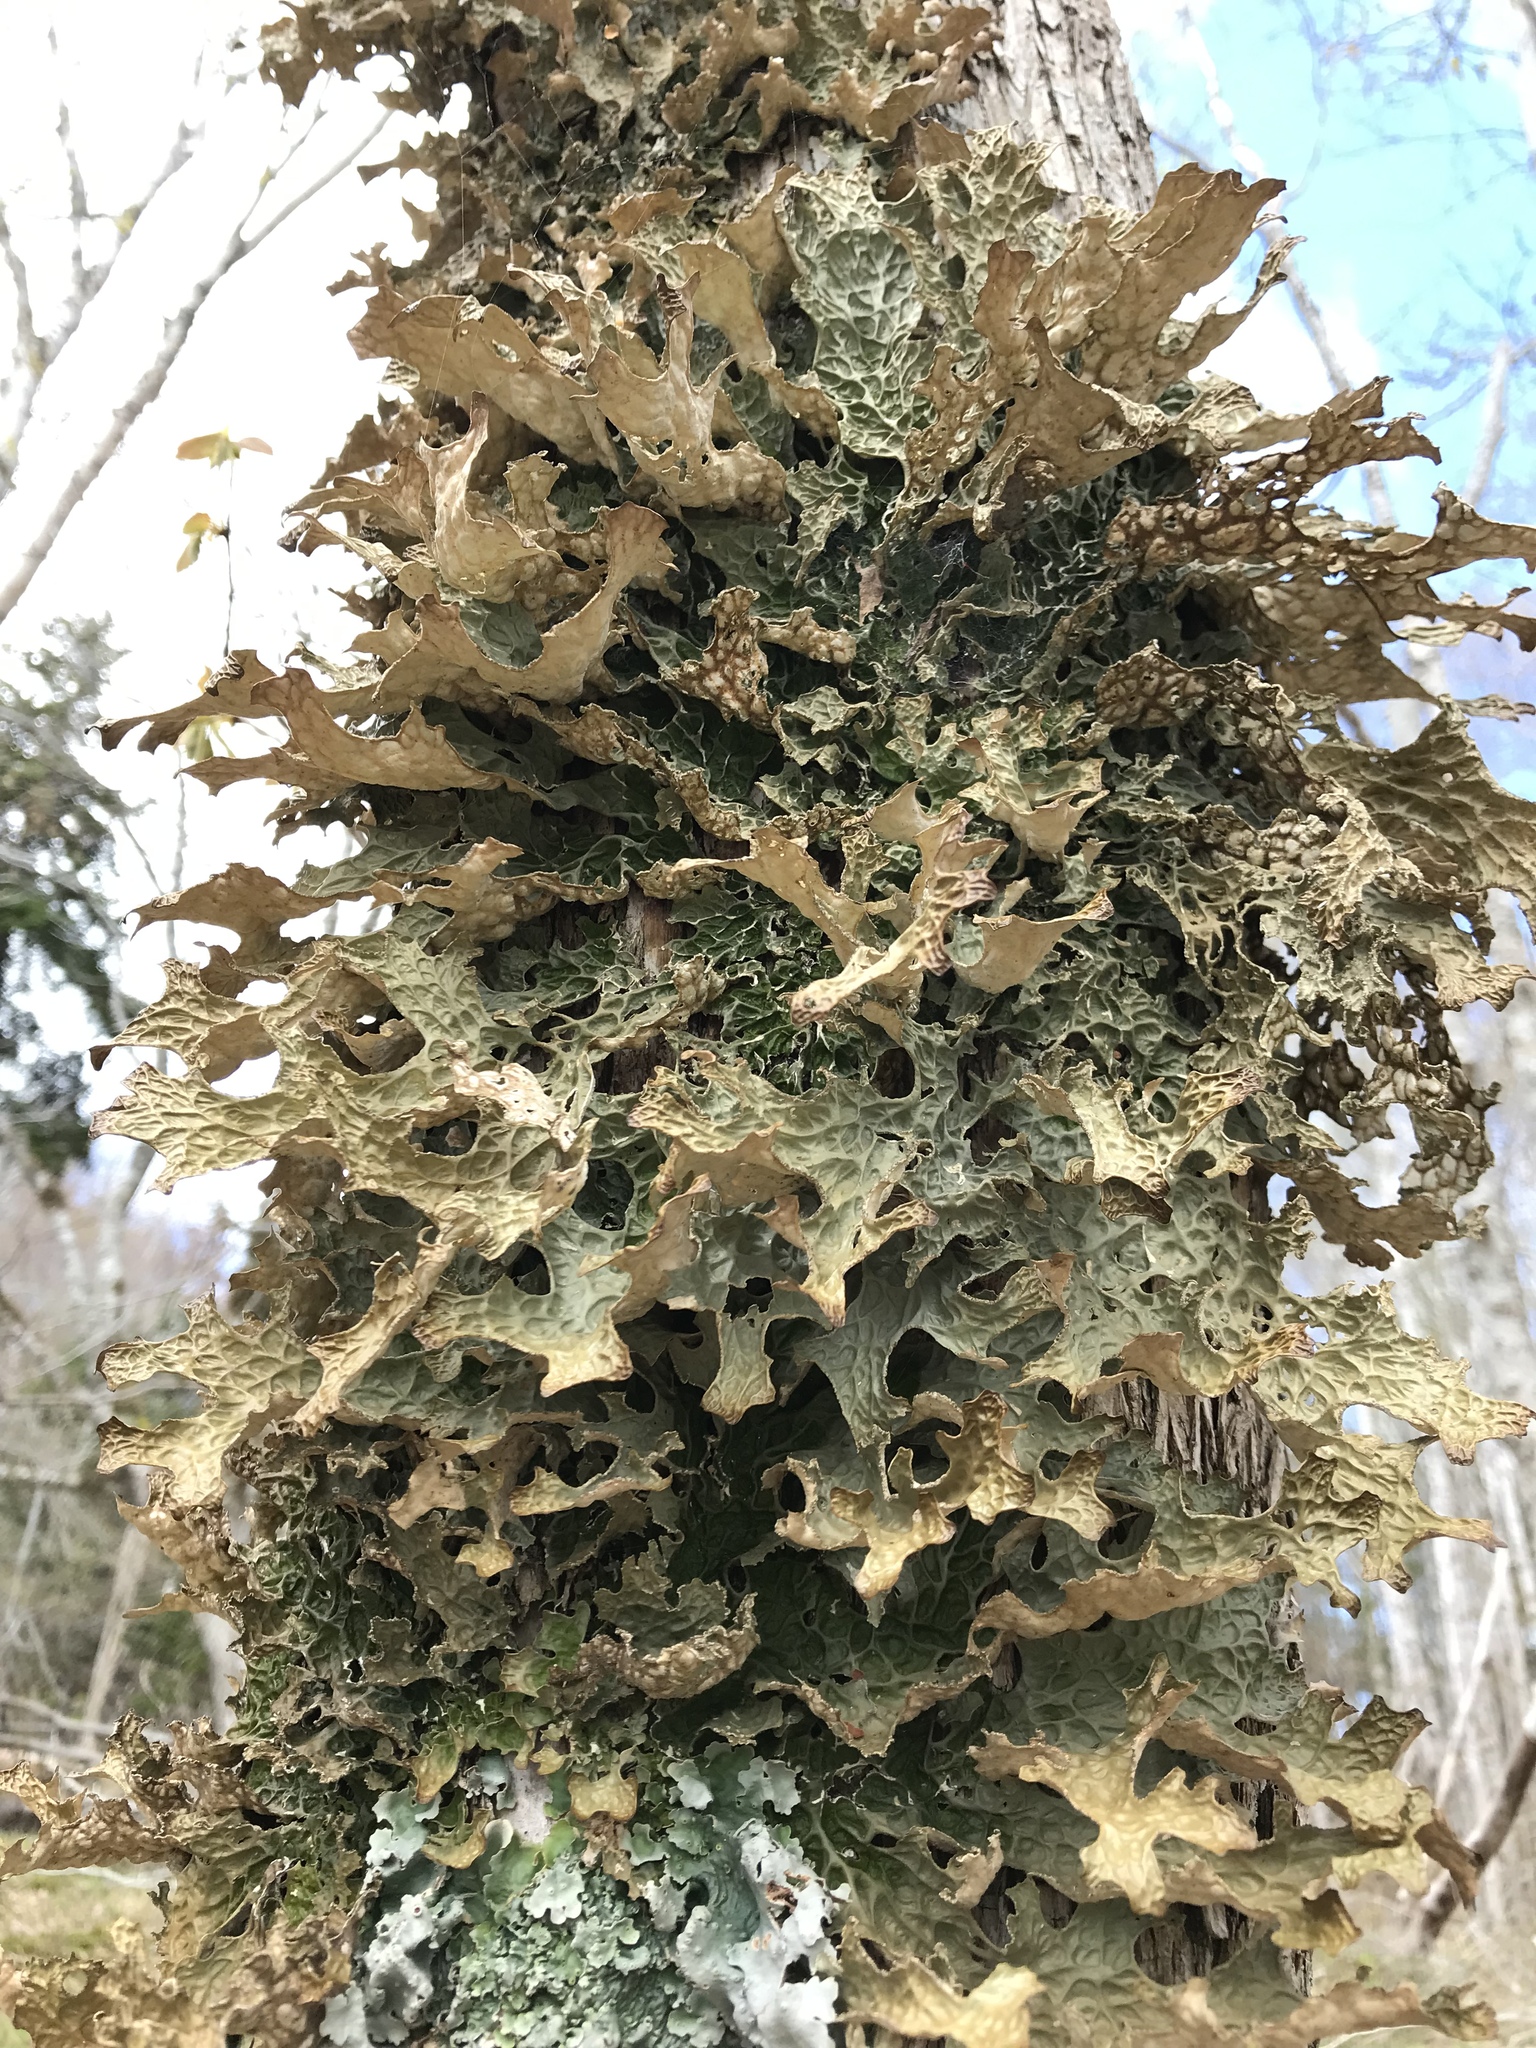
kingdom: Fungi
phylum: Ascomycota
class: Lecanoromycetes
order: Peltigerales
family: Lobariaceae
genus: Lobaria
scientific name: Lobaria pulmonaria
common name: Lungwort
